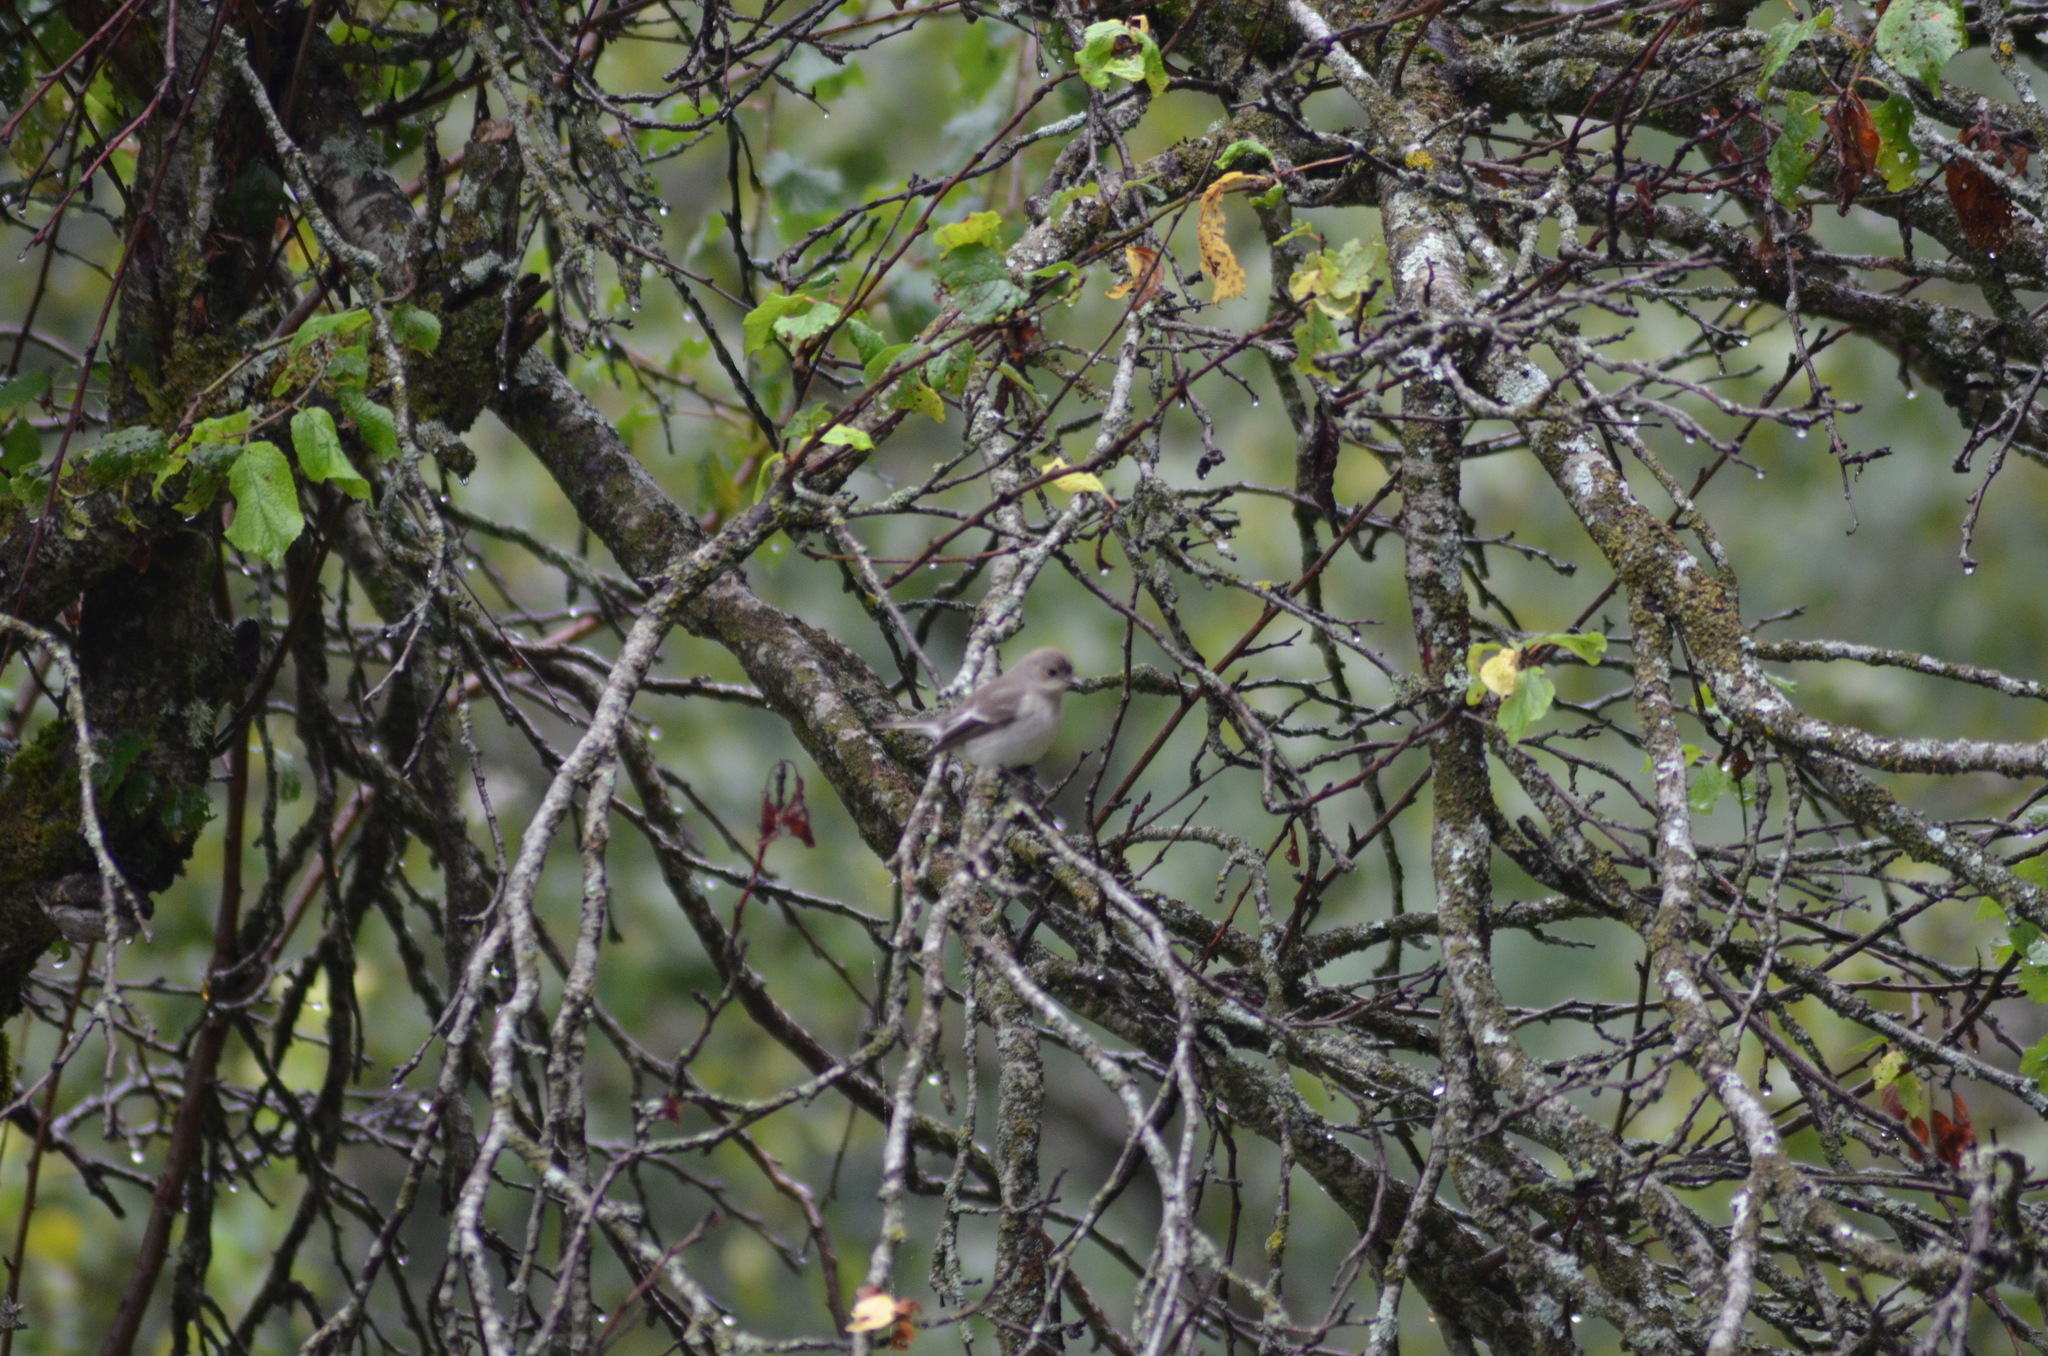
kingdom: Animalia
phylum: Chordata
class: Aves
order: Passeriformes
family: Muscicapidae
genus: Ficedula
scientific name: Ficedula hypoleuca
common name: European pied flycatcher
